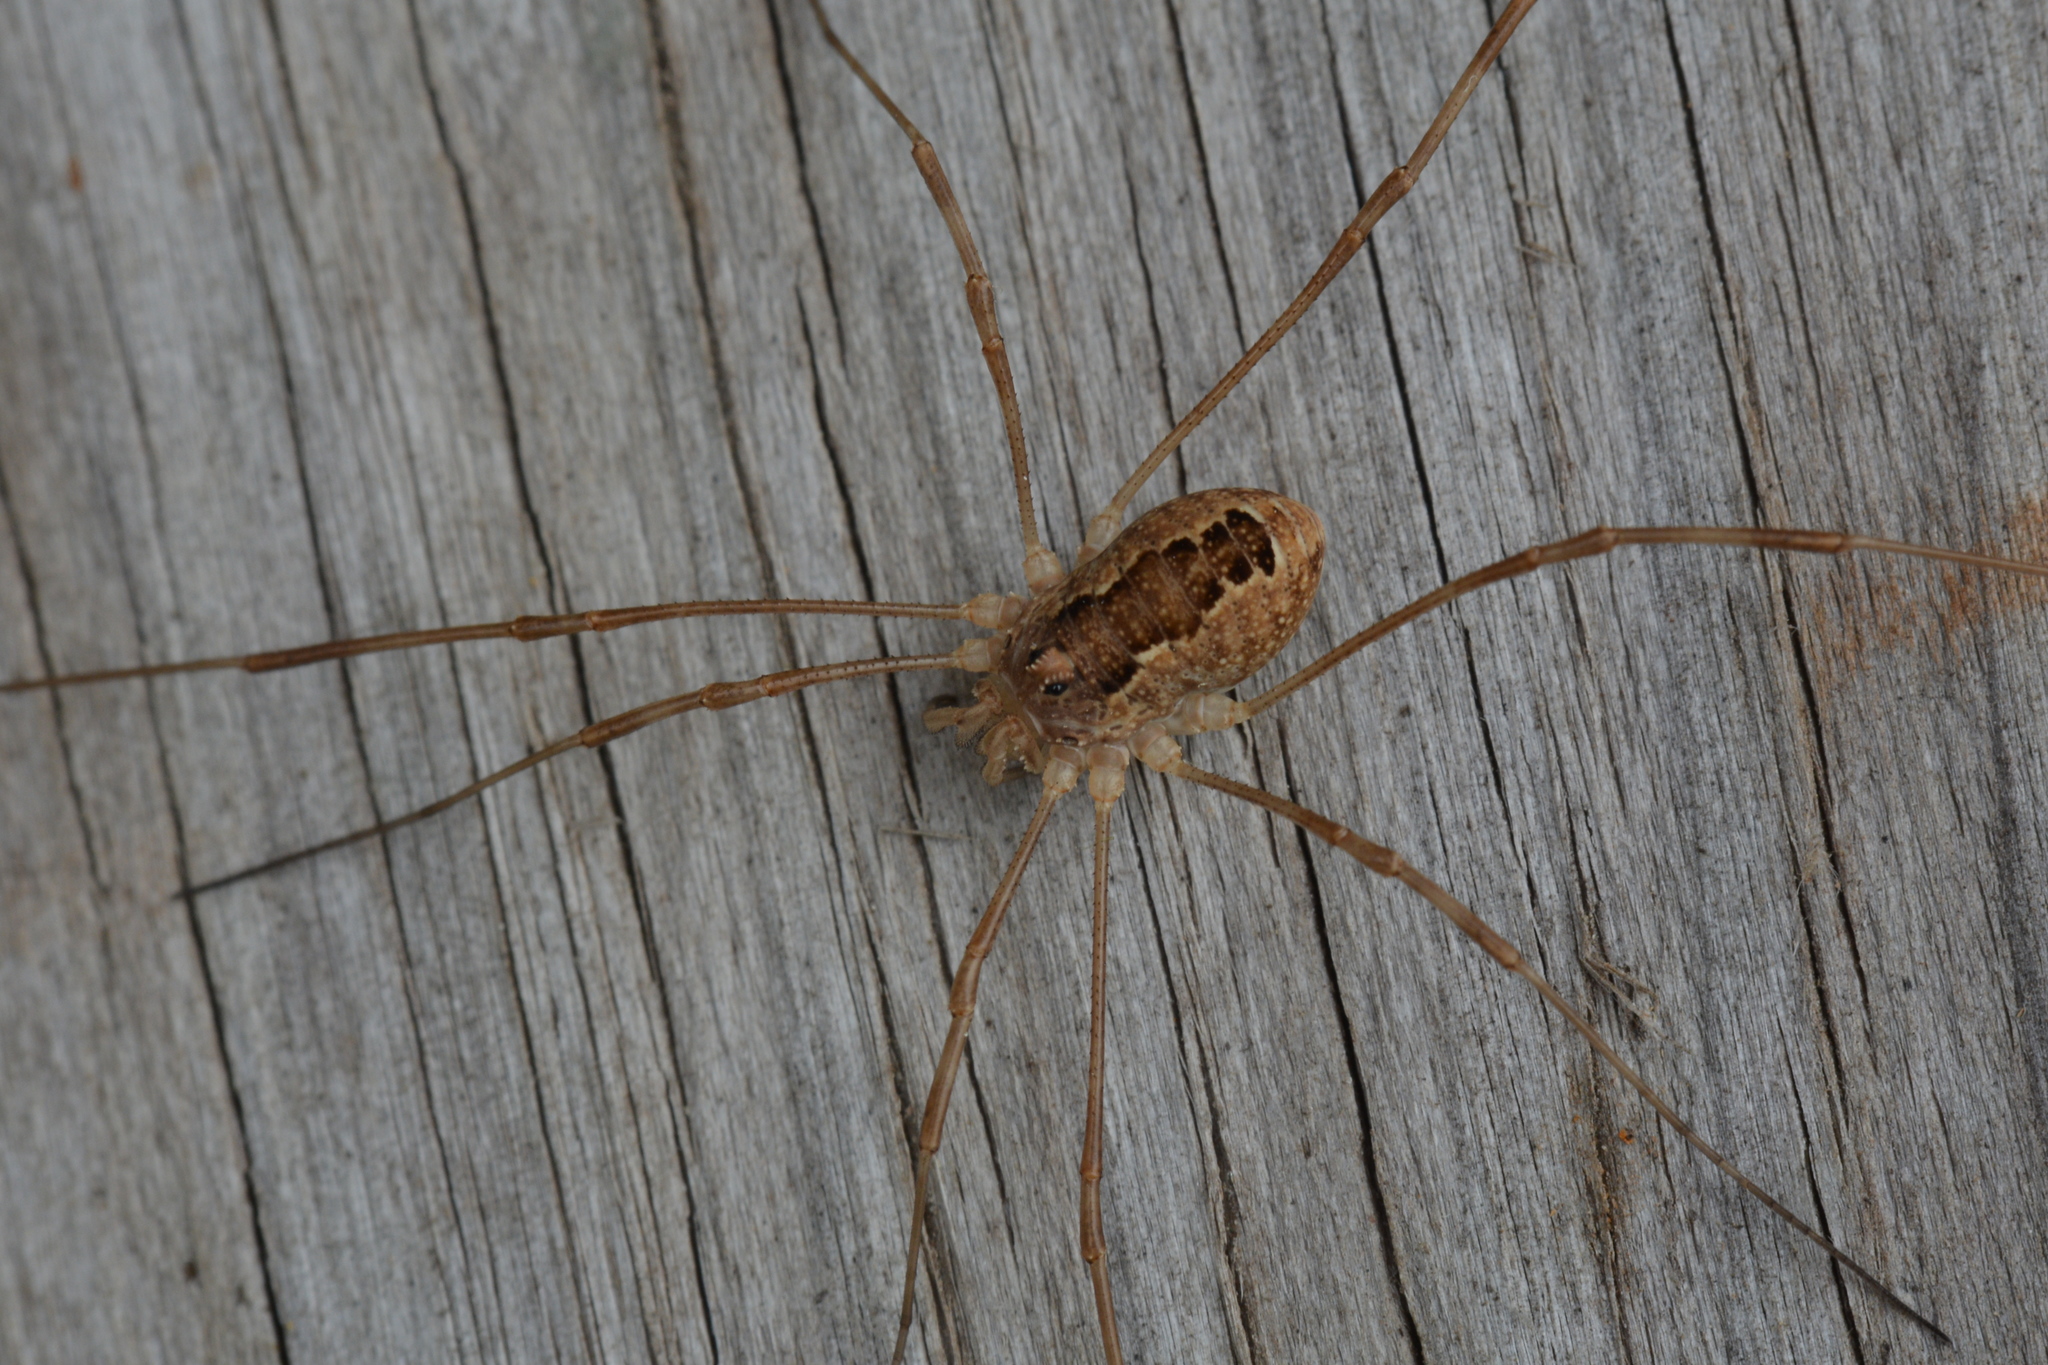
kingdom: Animalia
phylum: Arthropoda
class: Arachnida
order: Opiliones
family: Phalangiidae
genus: Rilaena
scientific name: Rilaena triangularis
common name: Spring harvestman
